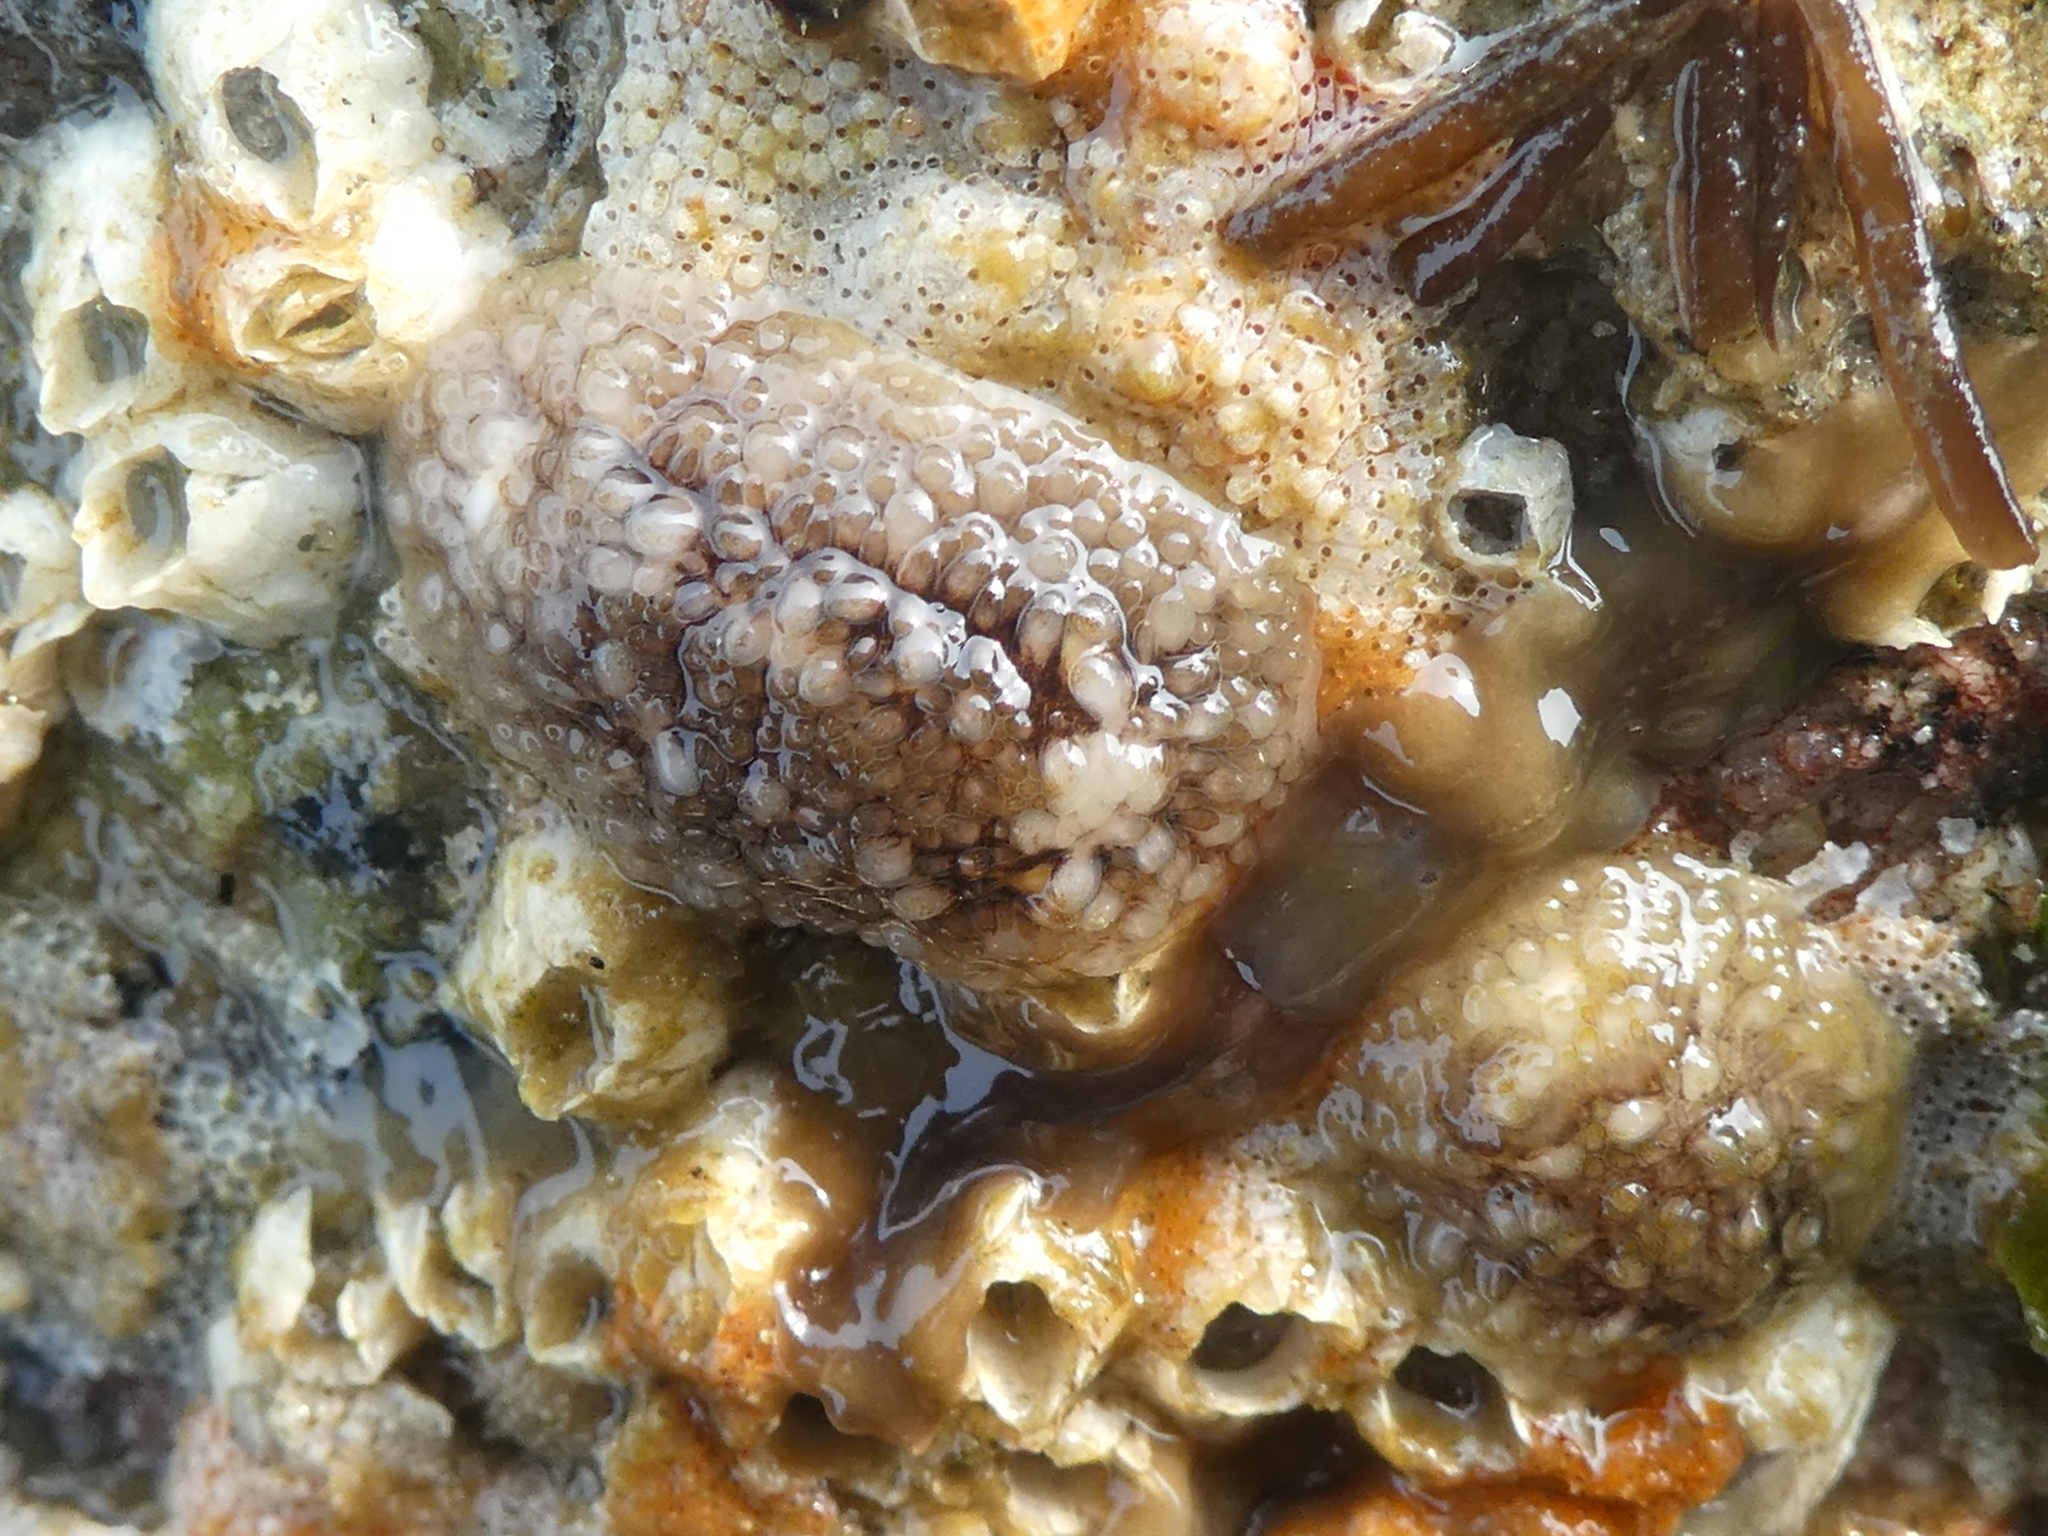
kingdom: Animalia
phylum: Mollusca
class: Gastropoda
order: Nudibranchia
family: Onchidorididae
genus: Onchidoris
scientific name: Onchidoris bilamellata
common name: Barnacle-eating onchidoris
